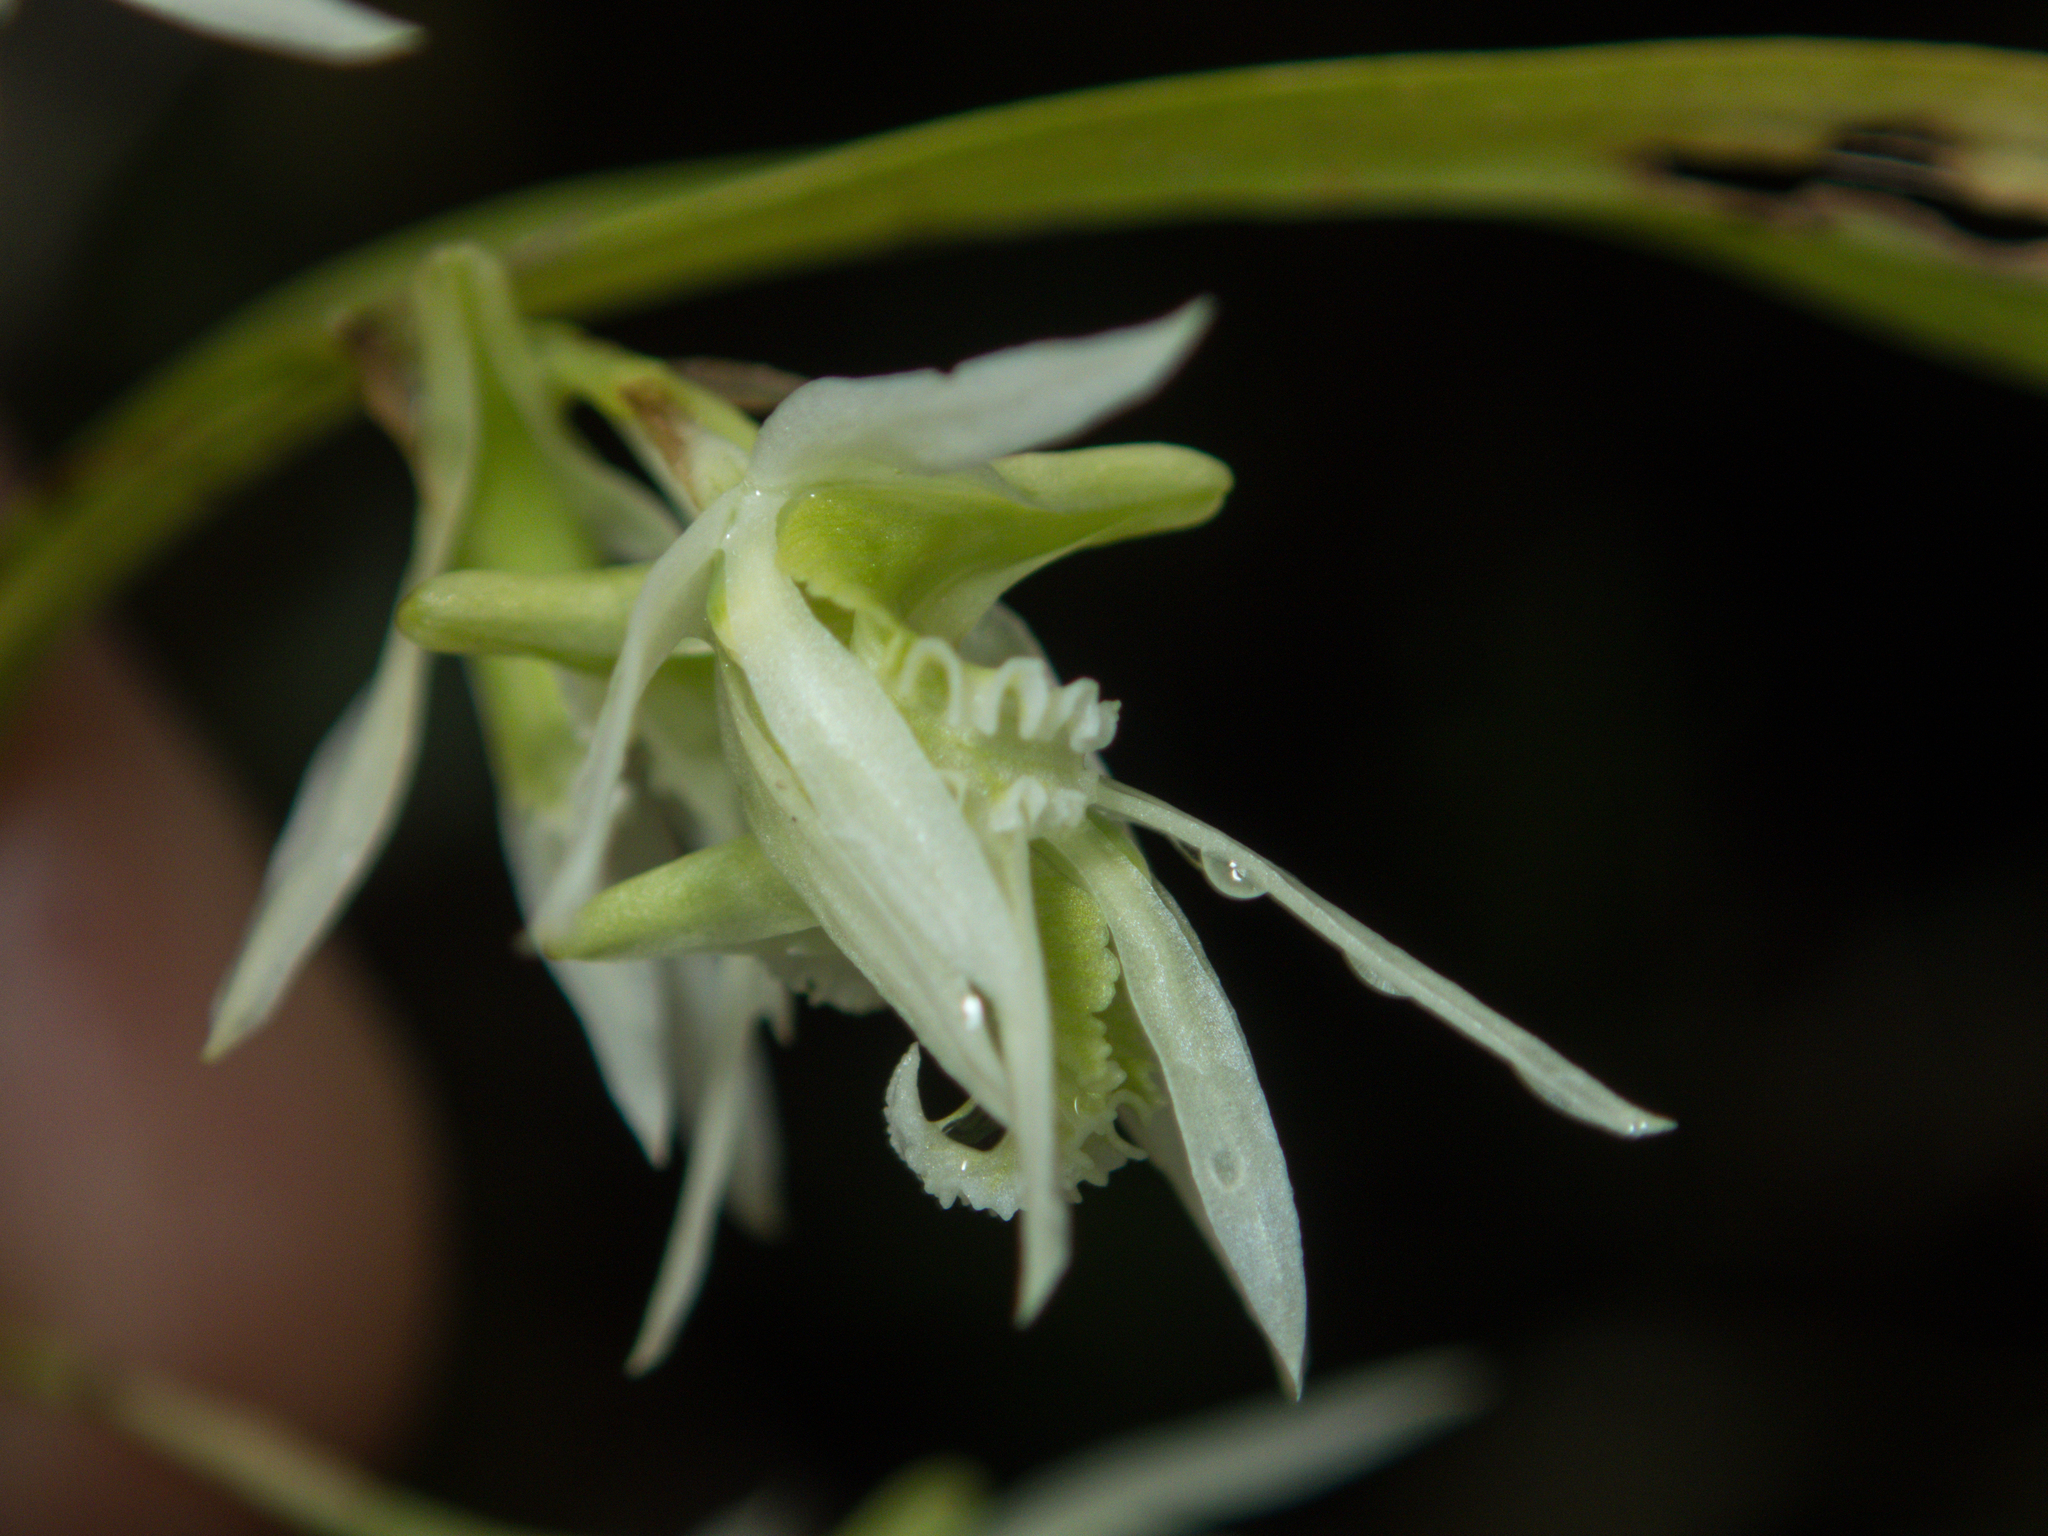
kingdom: Plantae
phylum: Tracheophyta
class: Liliopsida
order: Asparagales
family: Orchidaceae
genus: Dendrobium
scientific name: Dendrobium kratense
